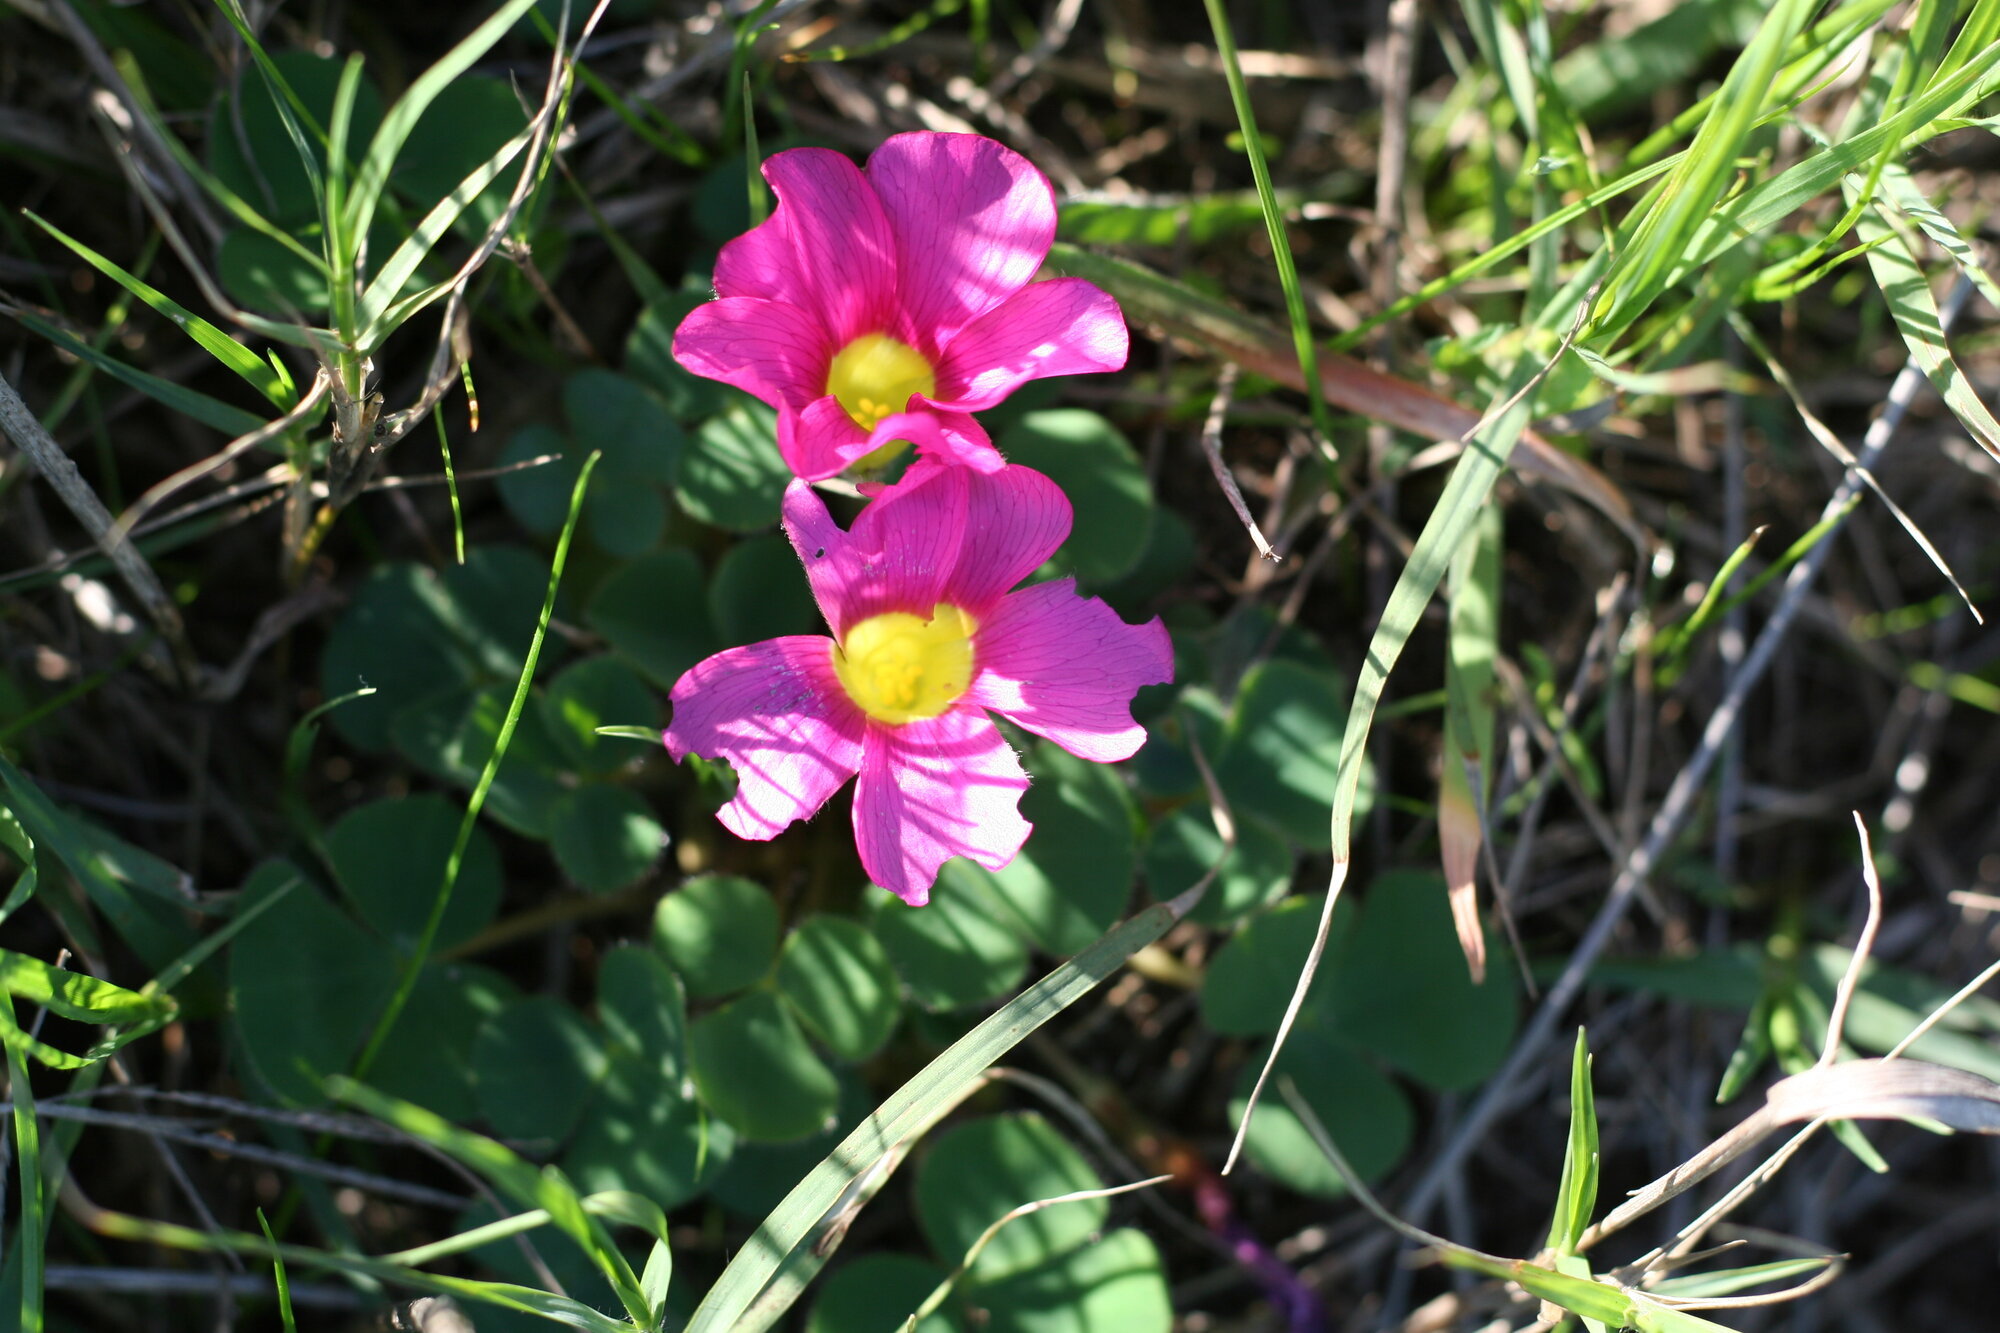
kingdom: Plantae
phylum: Tracheophyta
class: Magnoliopsida
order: Oxalidales
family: Oxalidaceae
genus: Oxalis
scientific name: Oxalis purpurea
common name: Purple woodsorrel
